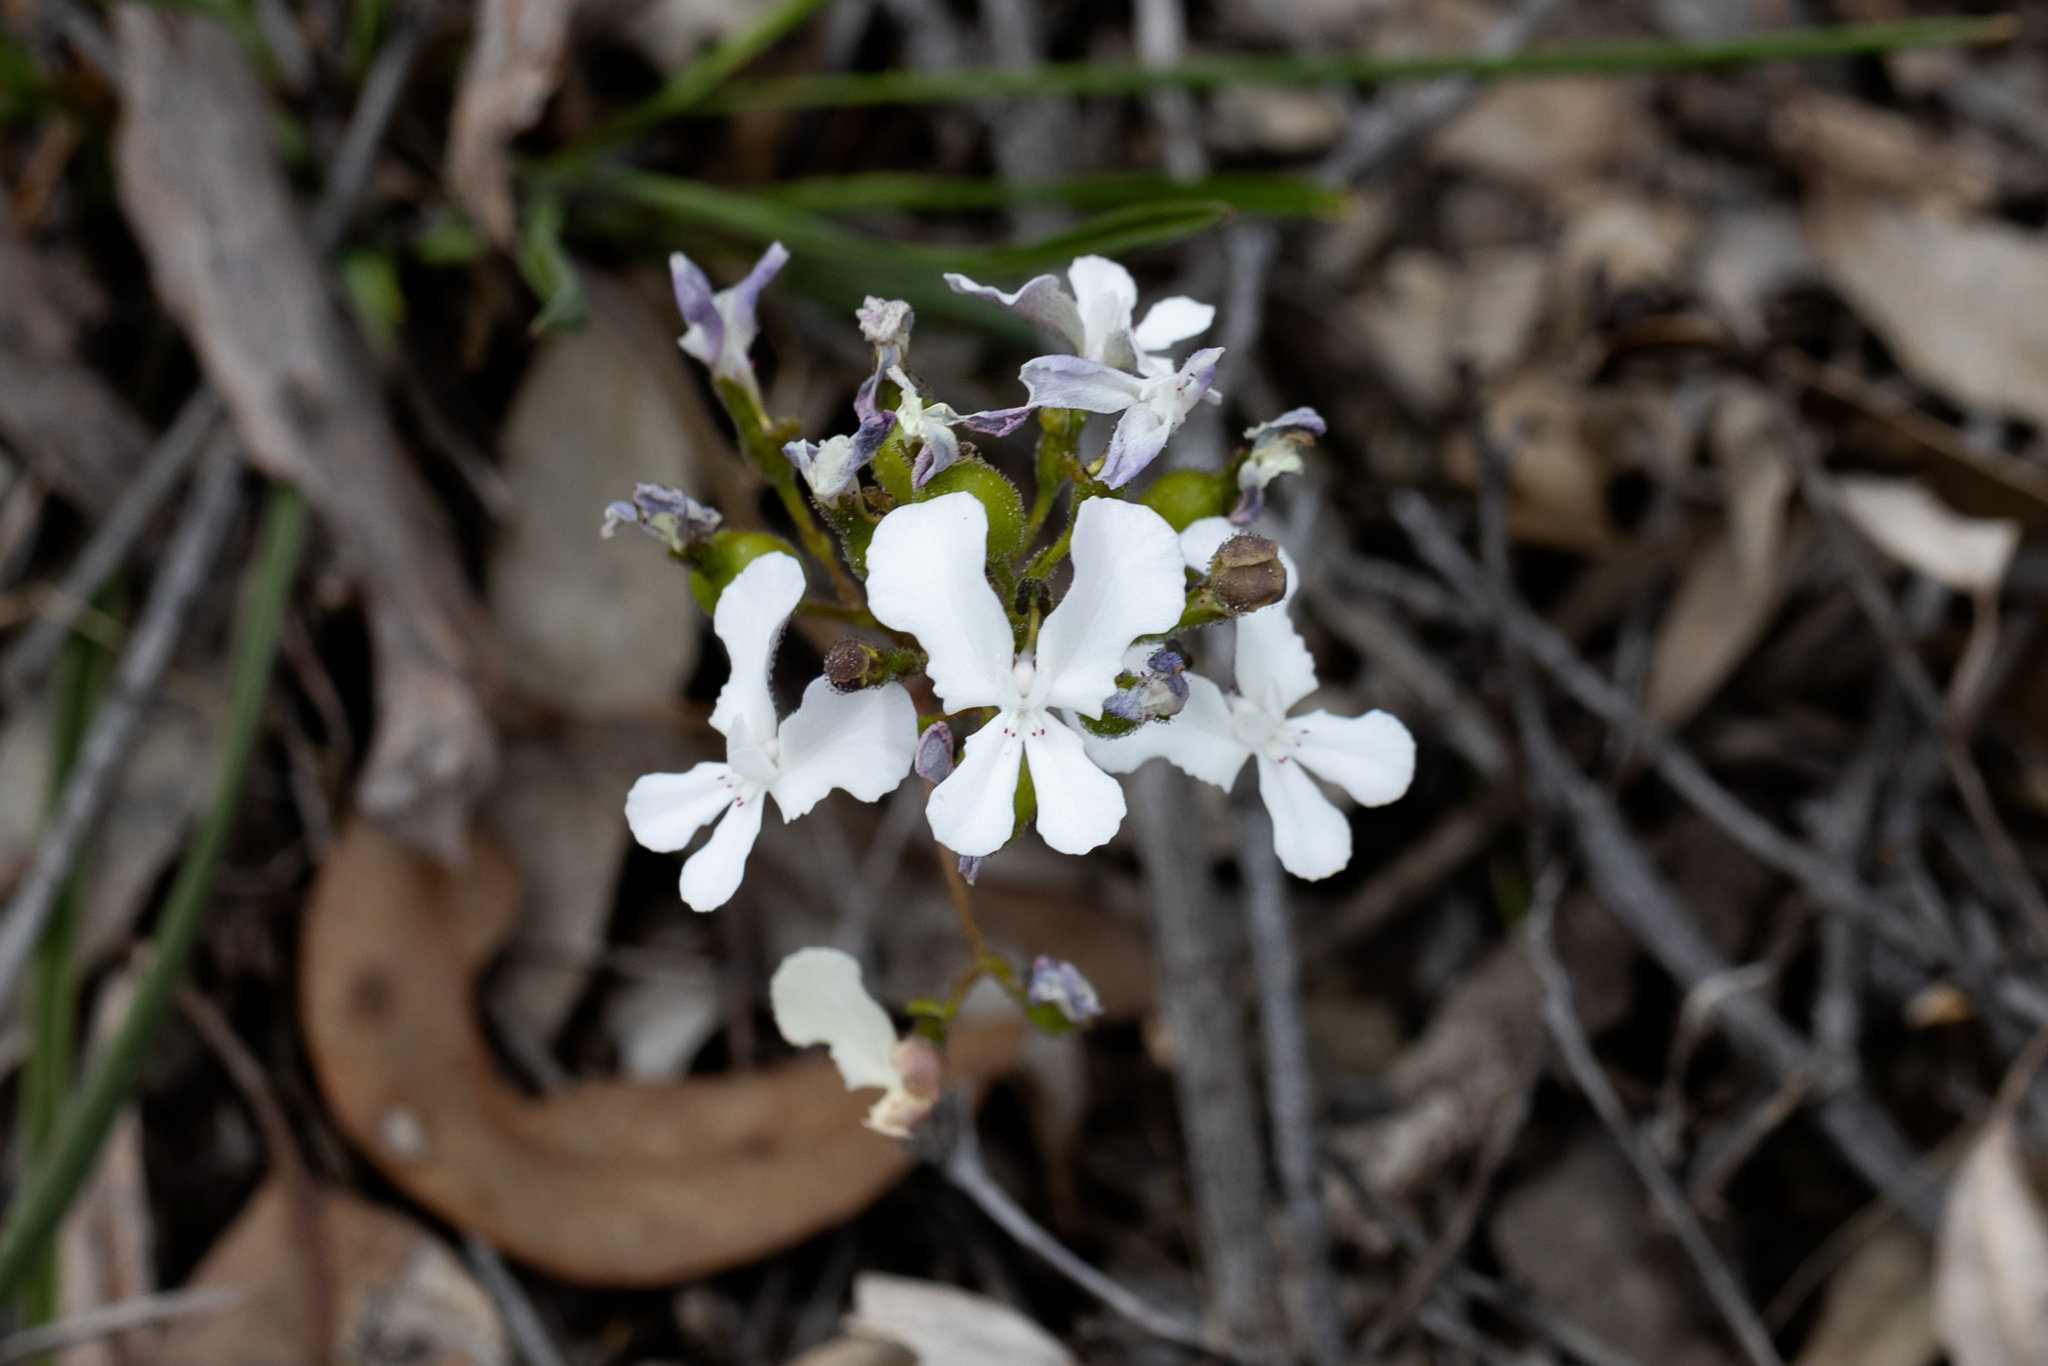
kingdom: Plantae
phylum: Tracheophyta
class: Magnoliopsida
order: Asterales
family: Stylidiaceae
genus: Stylidium
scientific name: Stylidium caricifolium
